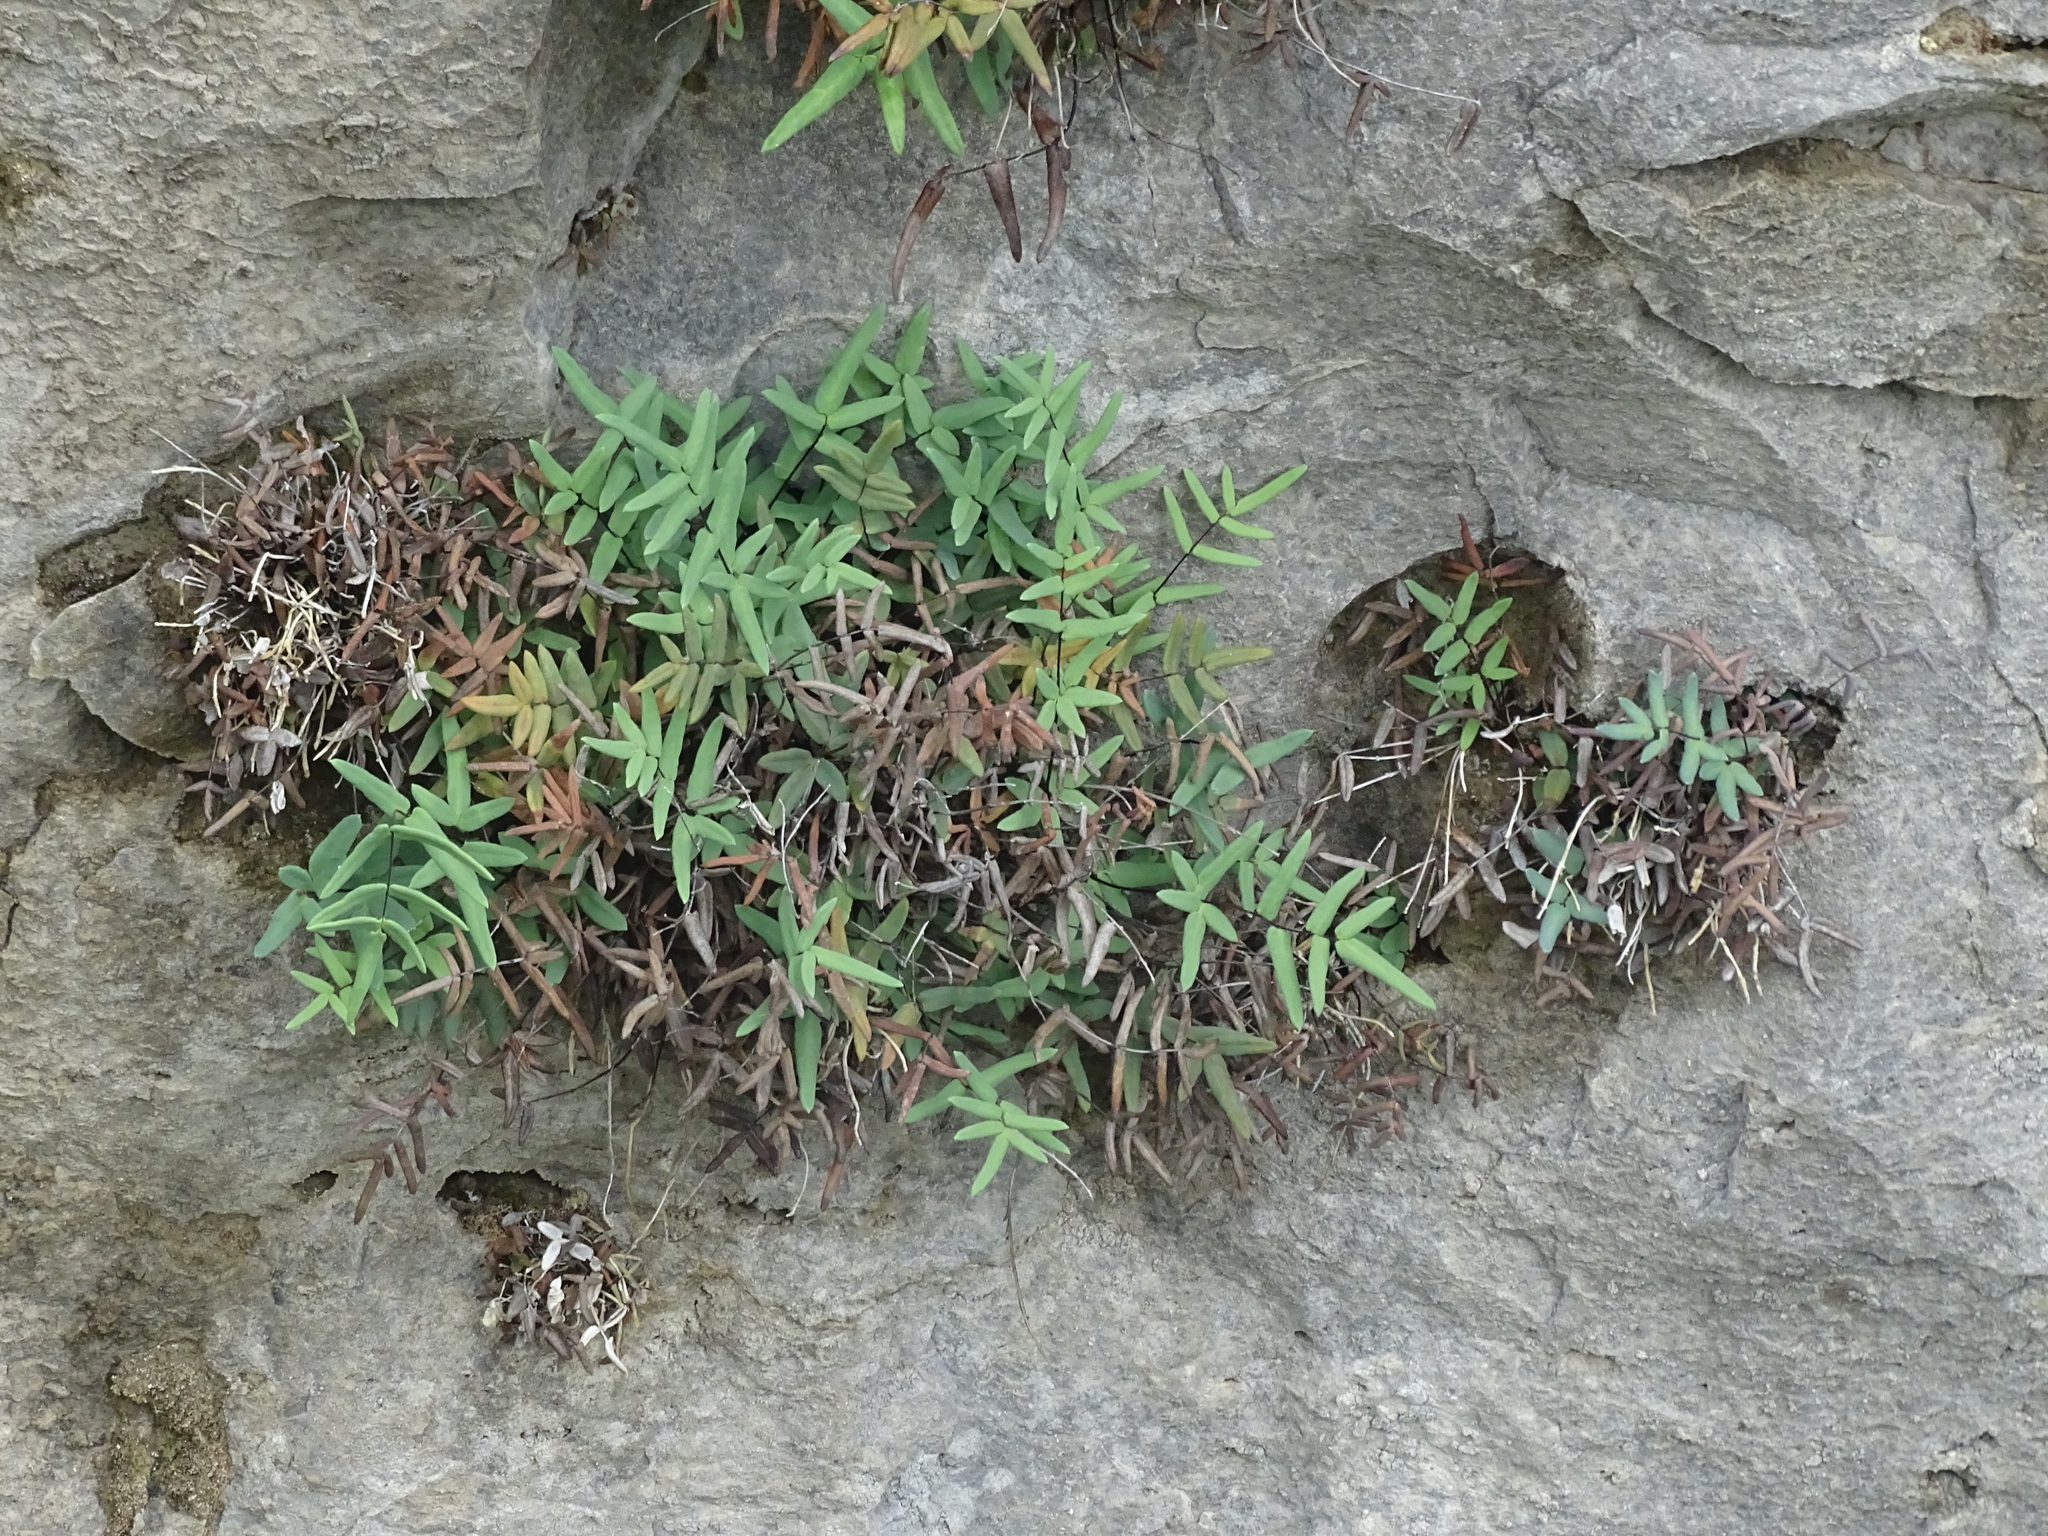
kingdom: Plantae
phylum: Tracheophyta
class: Polypodiopsida
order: Polypodiales
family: Pteridaceae
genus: Pellaea
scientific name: Pellaea glabella
